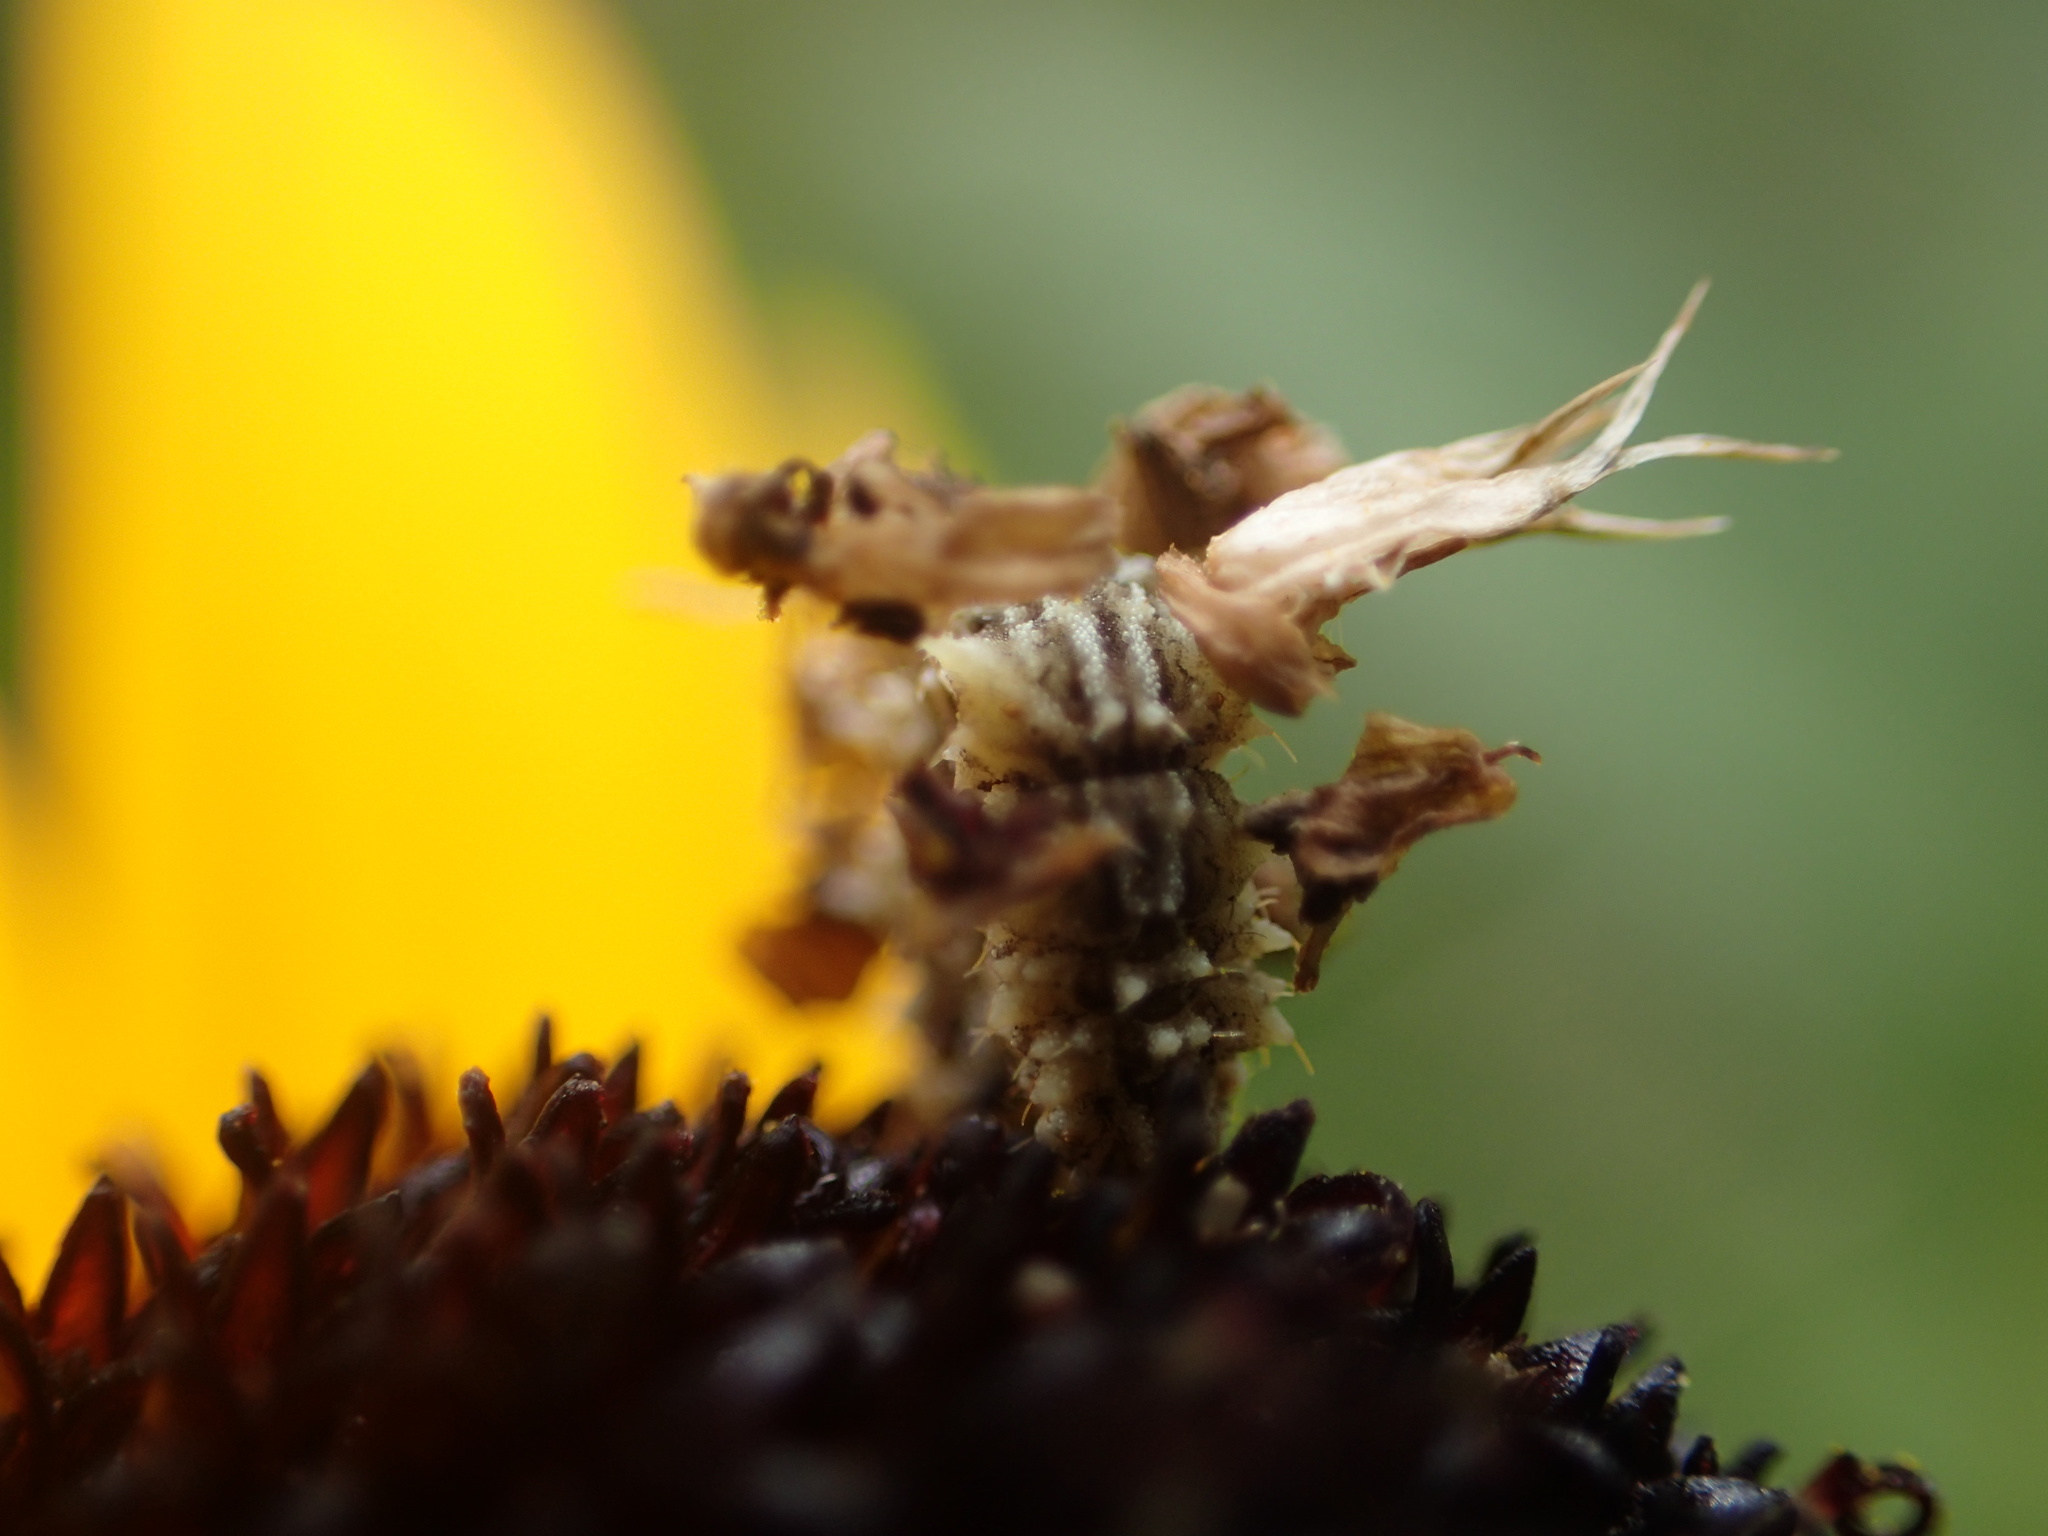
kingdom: Animalia
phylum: Arthropoda
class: Insecta
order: Lepidoptera
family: Geometridae
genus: Synchlora
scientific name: Synchlora aerata
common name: Wavy-lined emerald
